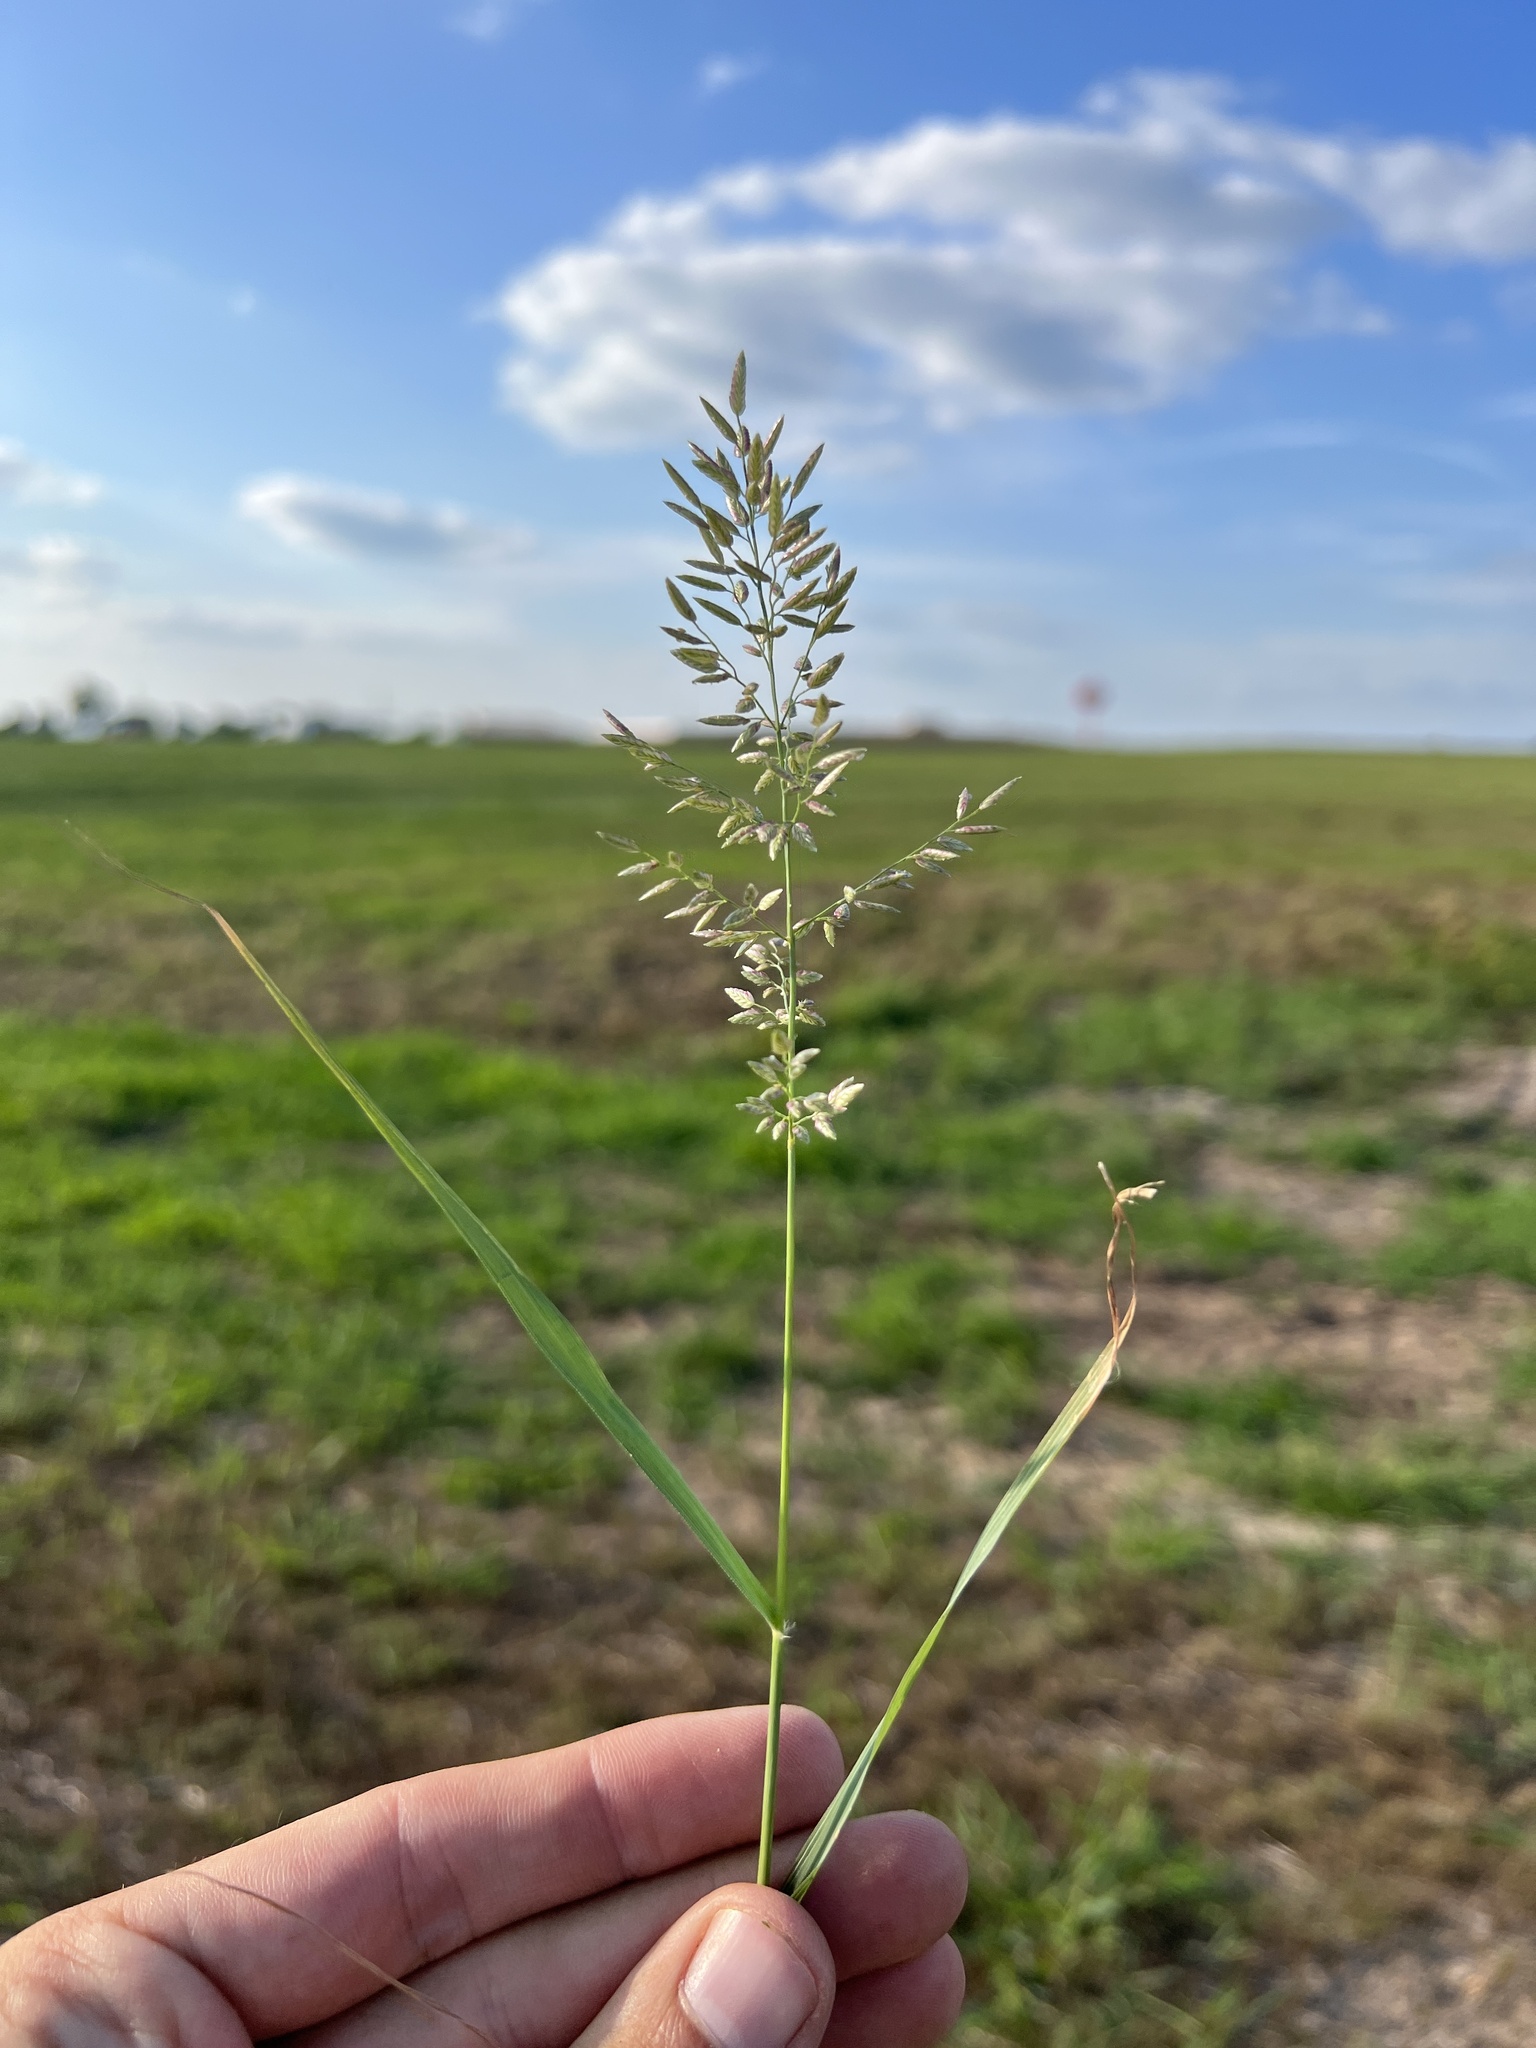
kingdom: Plantae
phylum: Tracheophyta
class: Liliopsida
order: Poales
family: Poaceae
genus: Eragrostis
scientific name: Eragrostis cilianensis
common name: Stinkgrass
